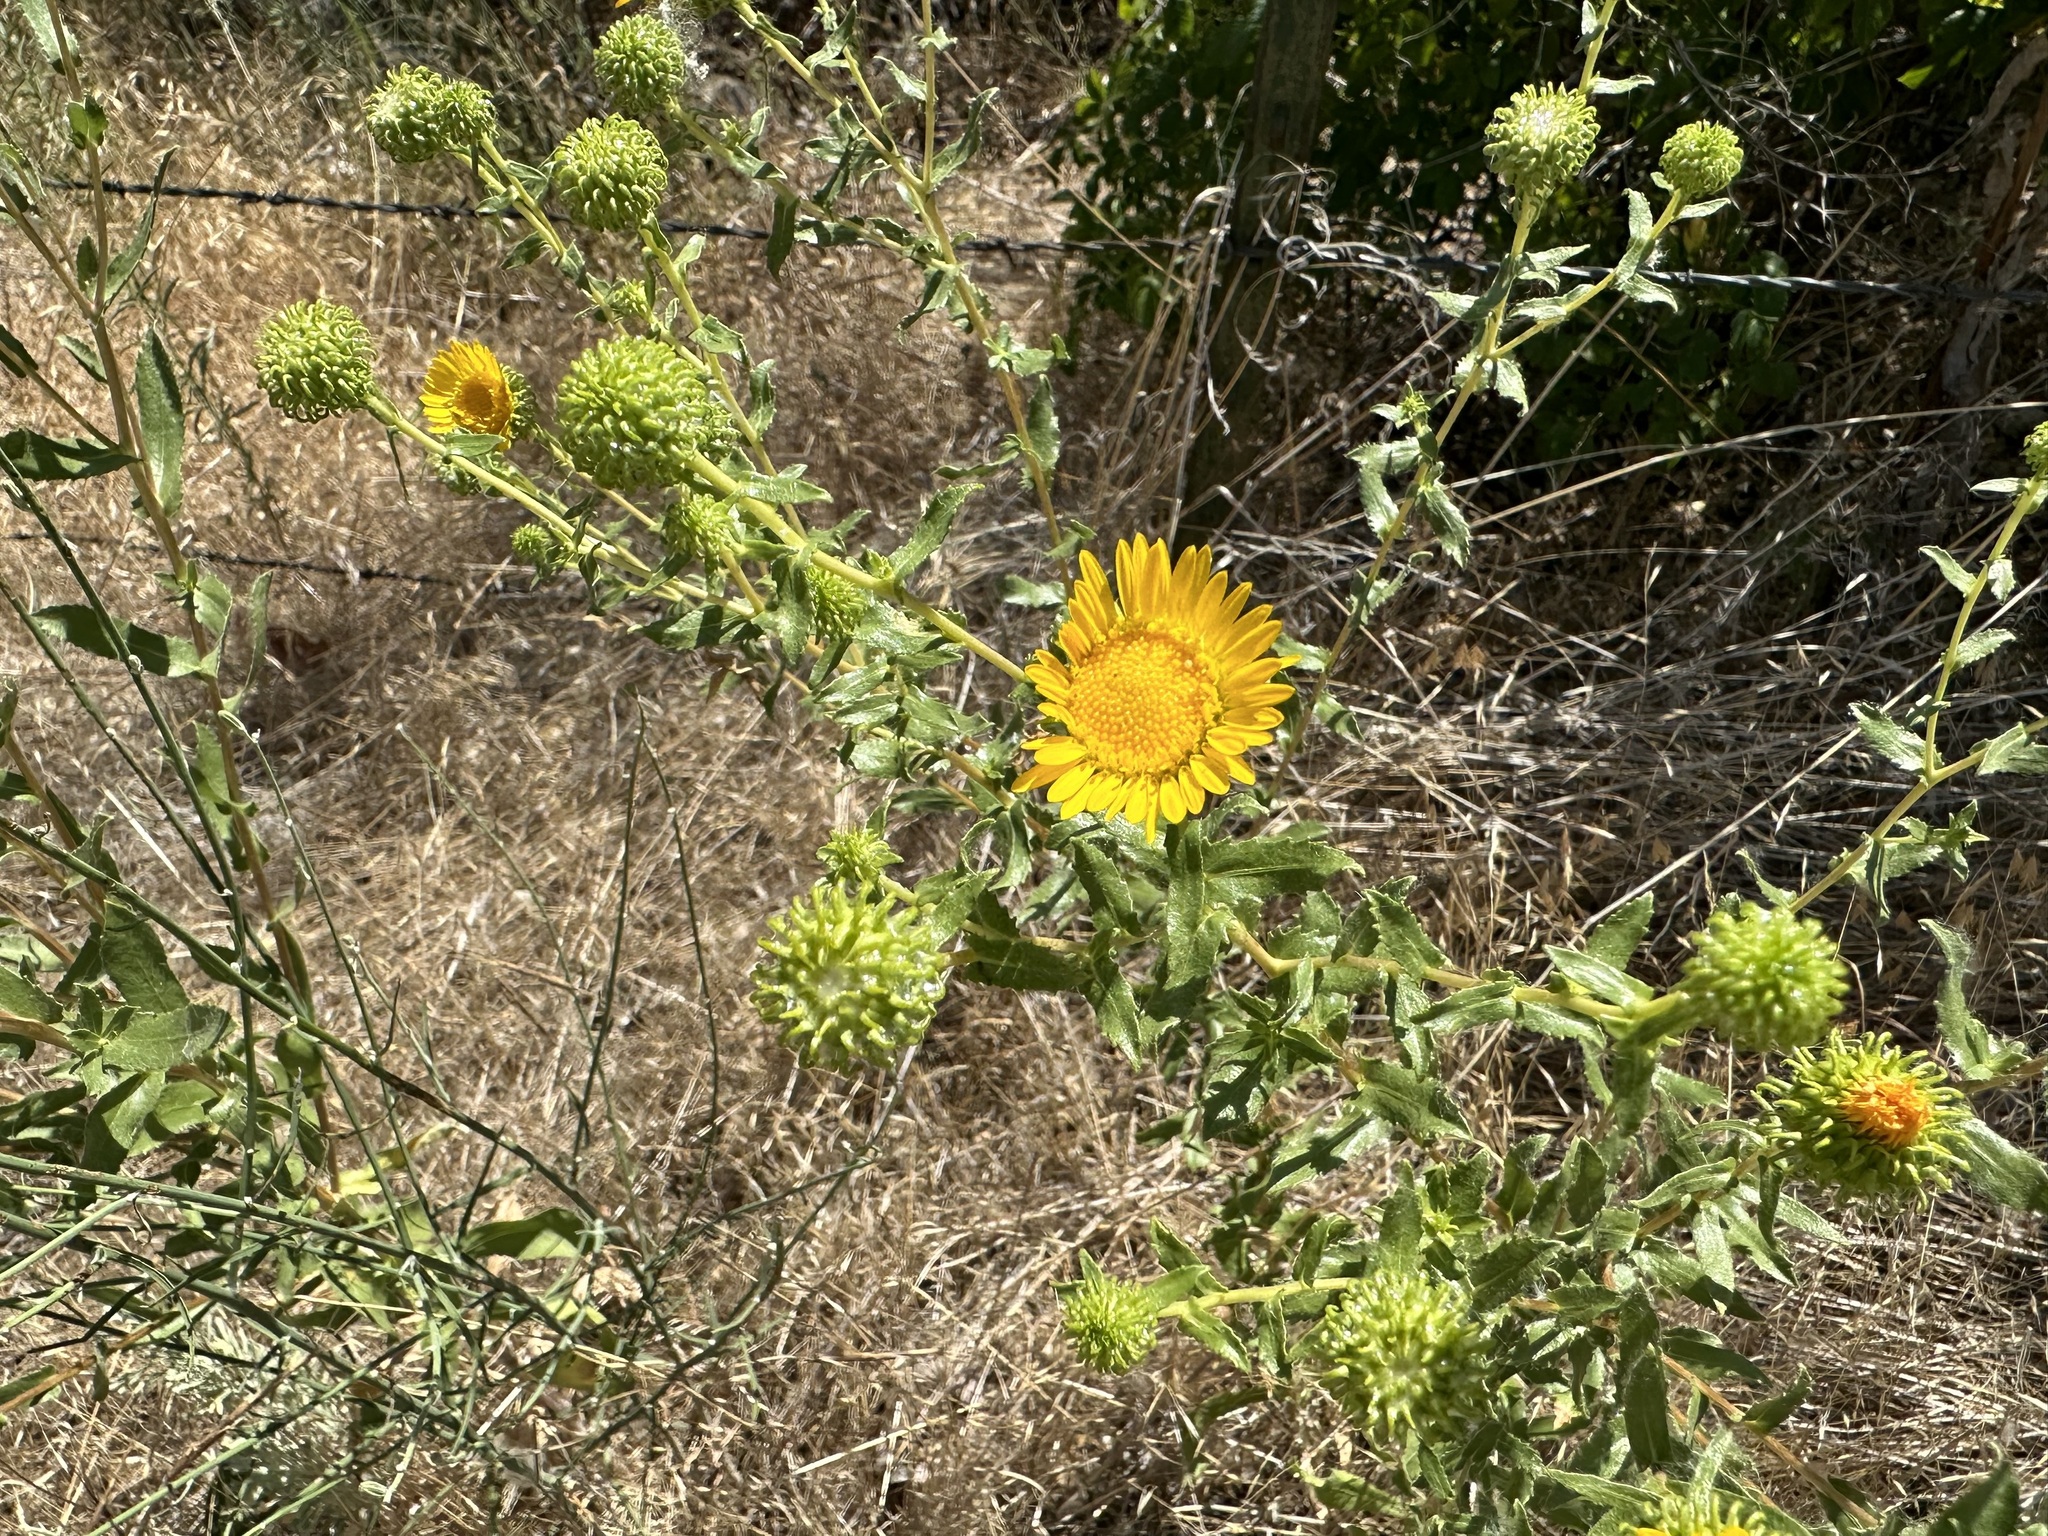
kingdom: Plantae
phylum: Tracheophyta
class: Magnoliopsida
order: Asterales
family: Asteraceae
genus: Grindelia
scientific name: Grindelia squarrosa
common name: Curly-cup gumweed
